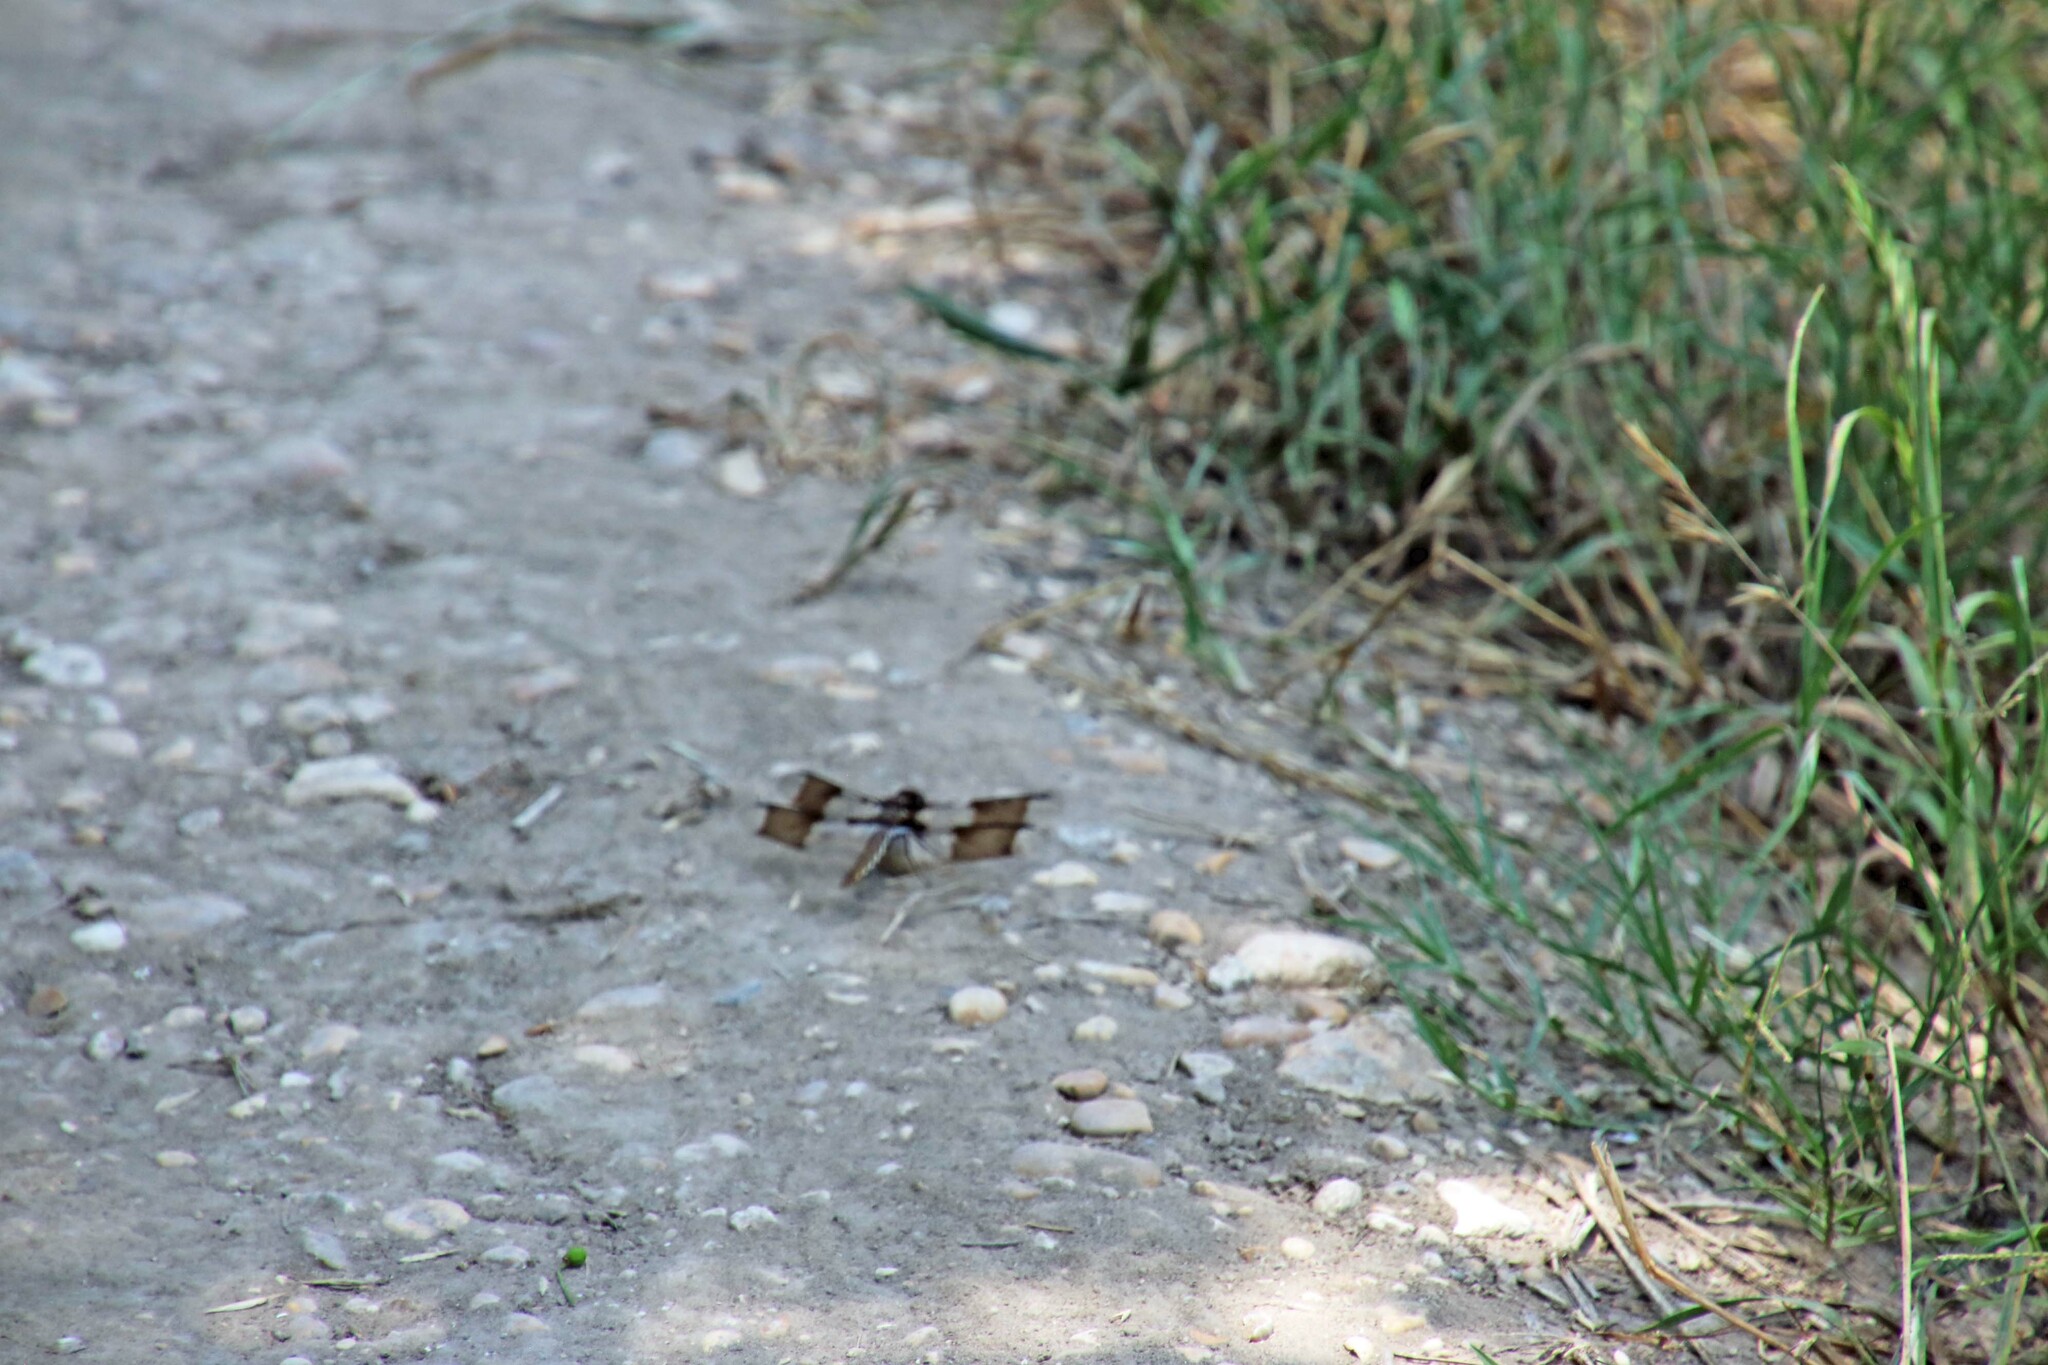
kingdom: Animalia
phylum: Arthropoda
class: Insecta
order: Odonata
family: Libellulidae
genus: Plathemis
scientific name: Plathemis lydia
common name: Common whitetail
